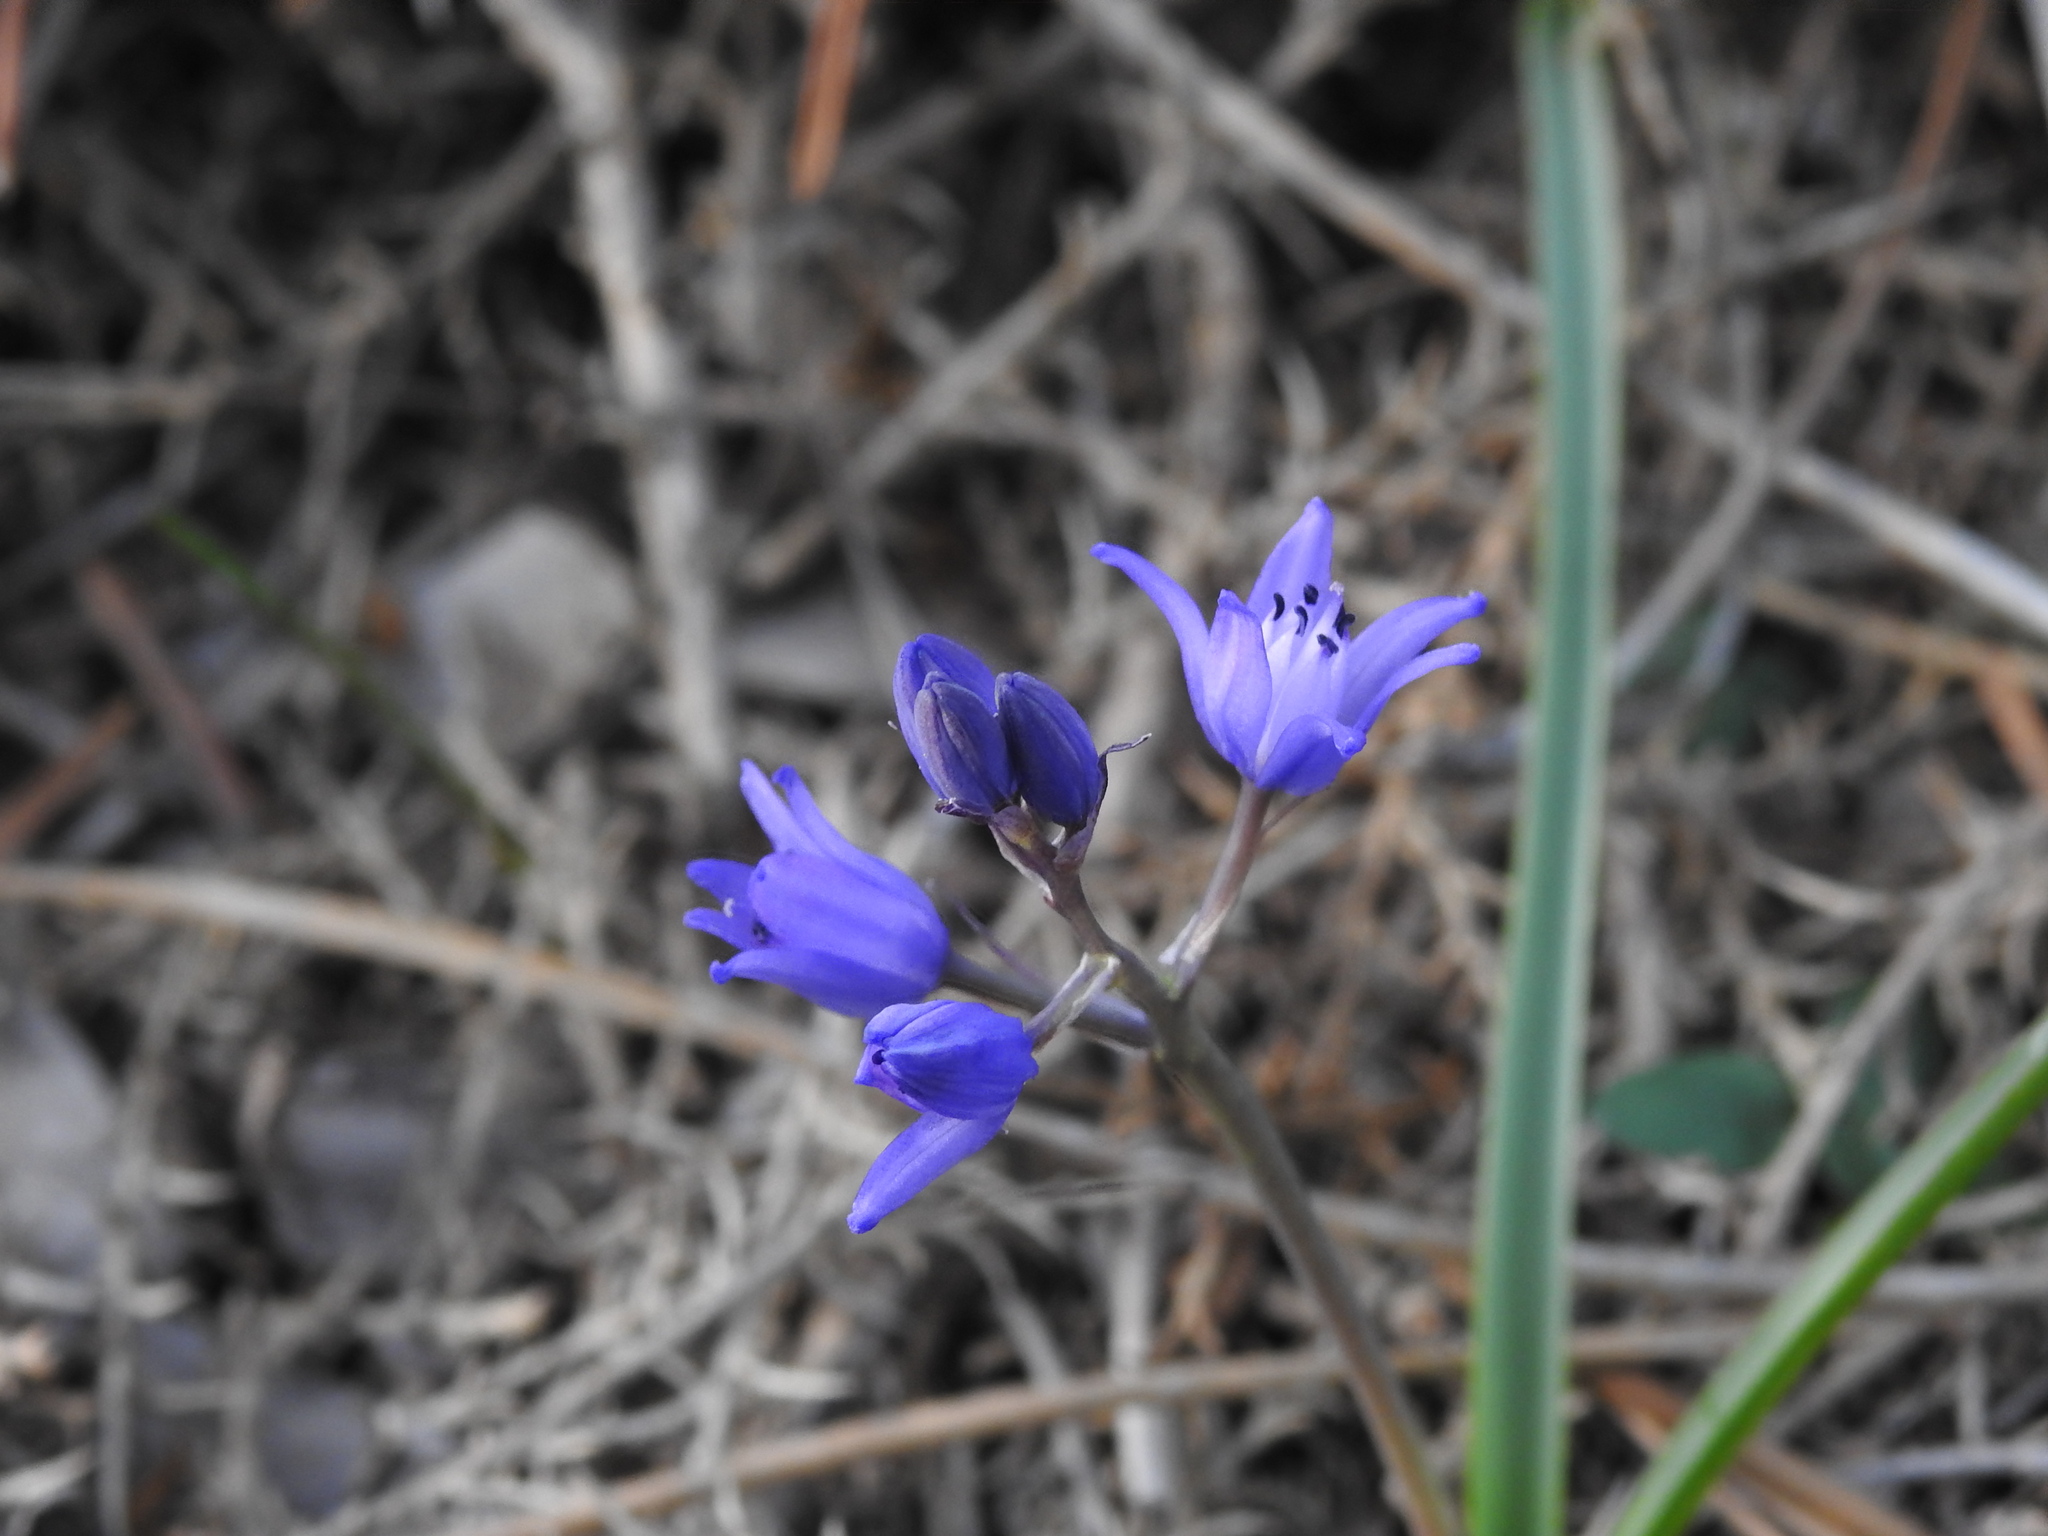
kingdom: Plantae
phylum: Tracheophyta
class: Liliopsida
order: Asparagales
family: Asparagaceae
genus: Scilla
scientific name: Scilla verna
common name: Spring squill
